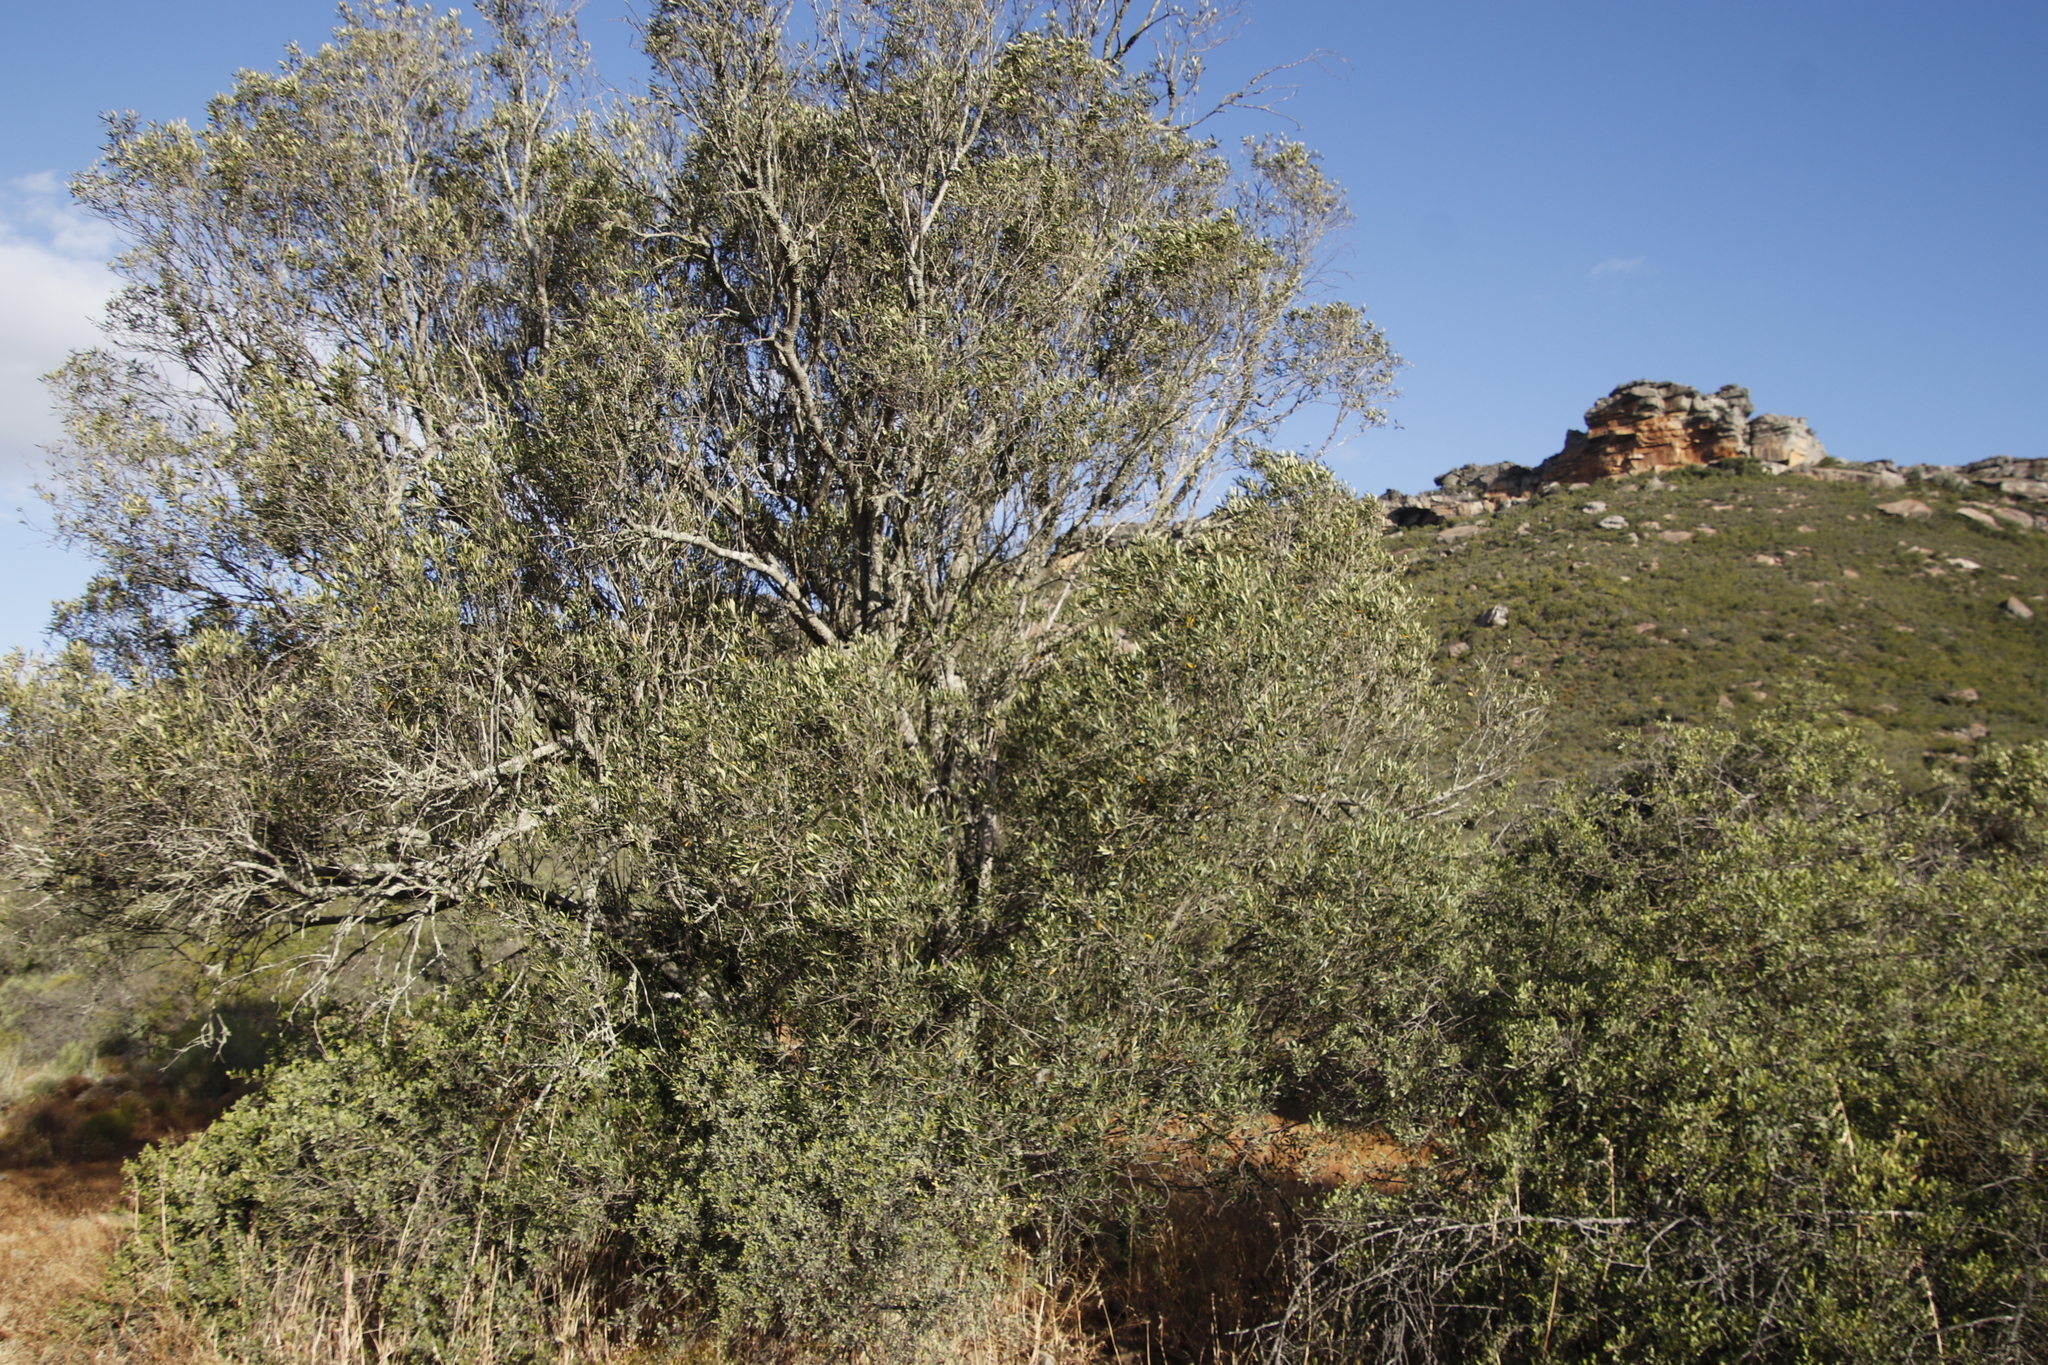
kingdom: Plantae
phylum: Tracheophyta
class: Magnoliopsida
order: Lamiales
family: Oleaceae
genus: Olea
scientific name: Olea europaea
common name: Olive
